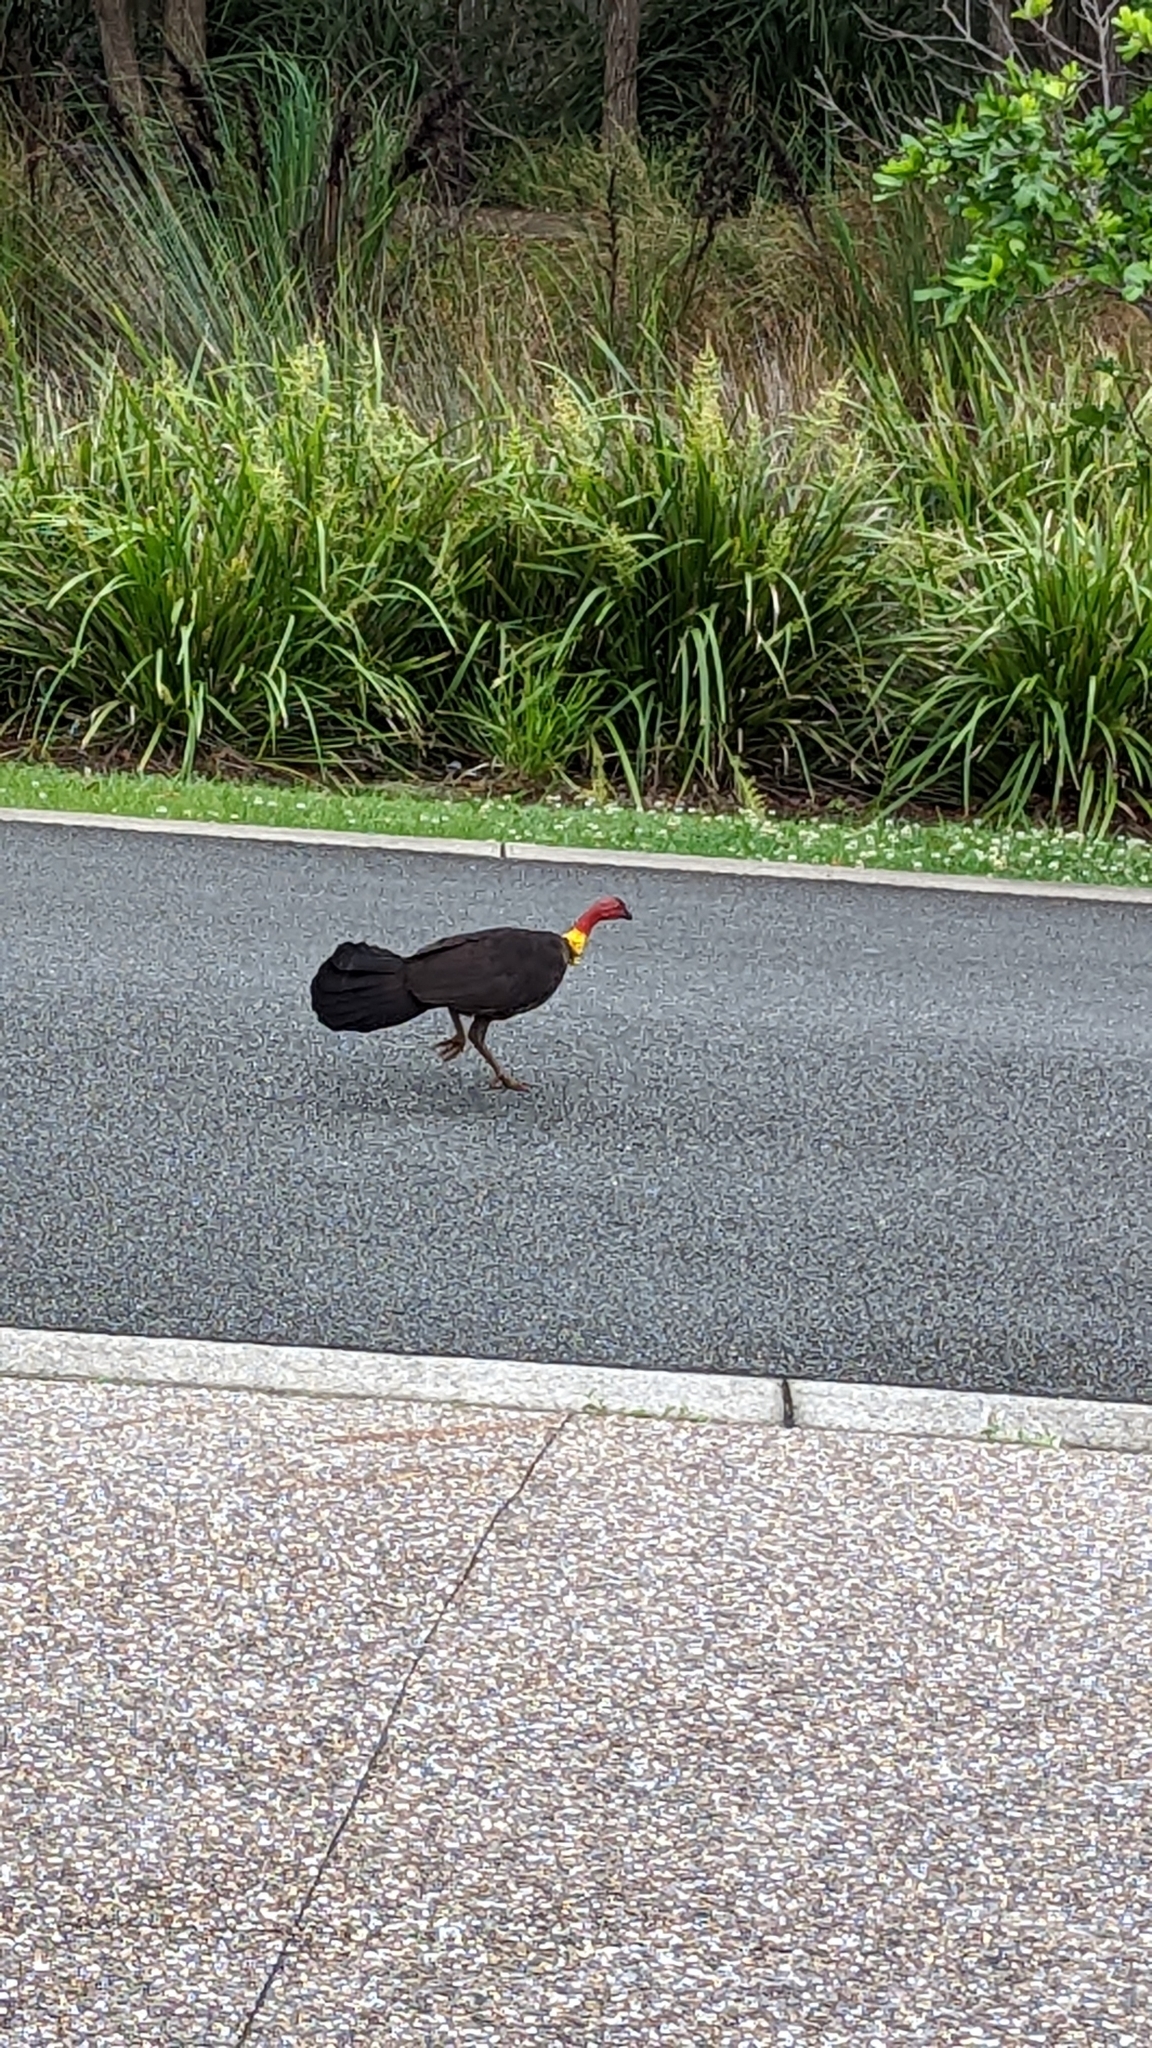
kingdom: Animalia
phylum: Chordata
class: Aves
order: Galliformes
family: Megapodiidae
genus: Alectura
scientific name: Alectura lathami
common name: Australian brushturkey
